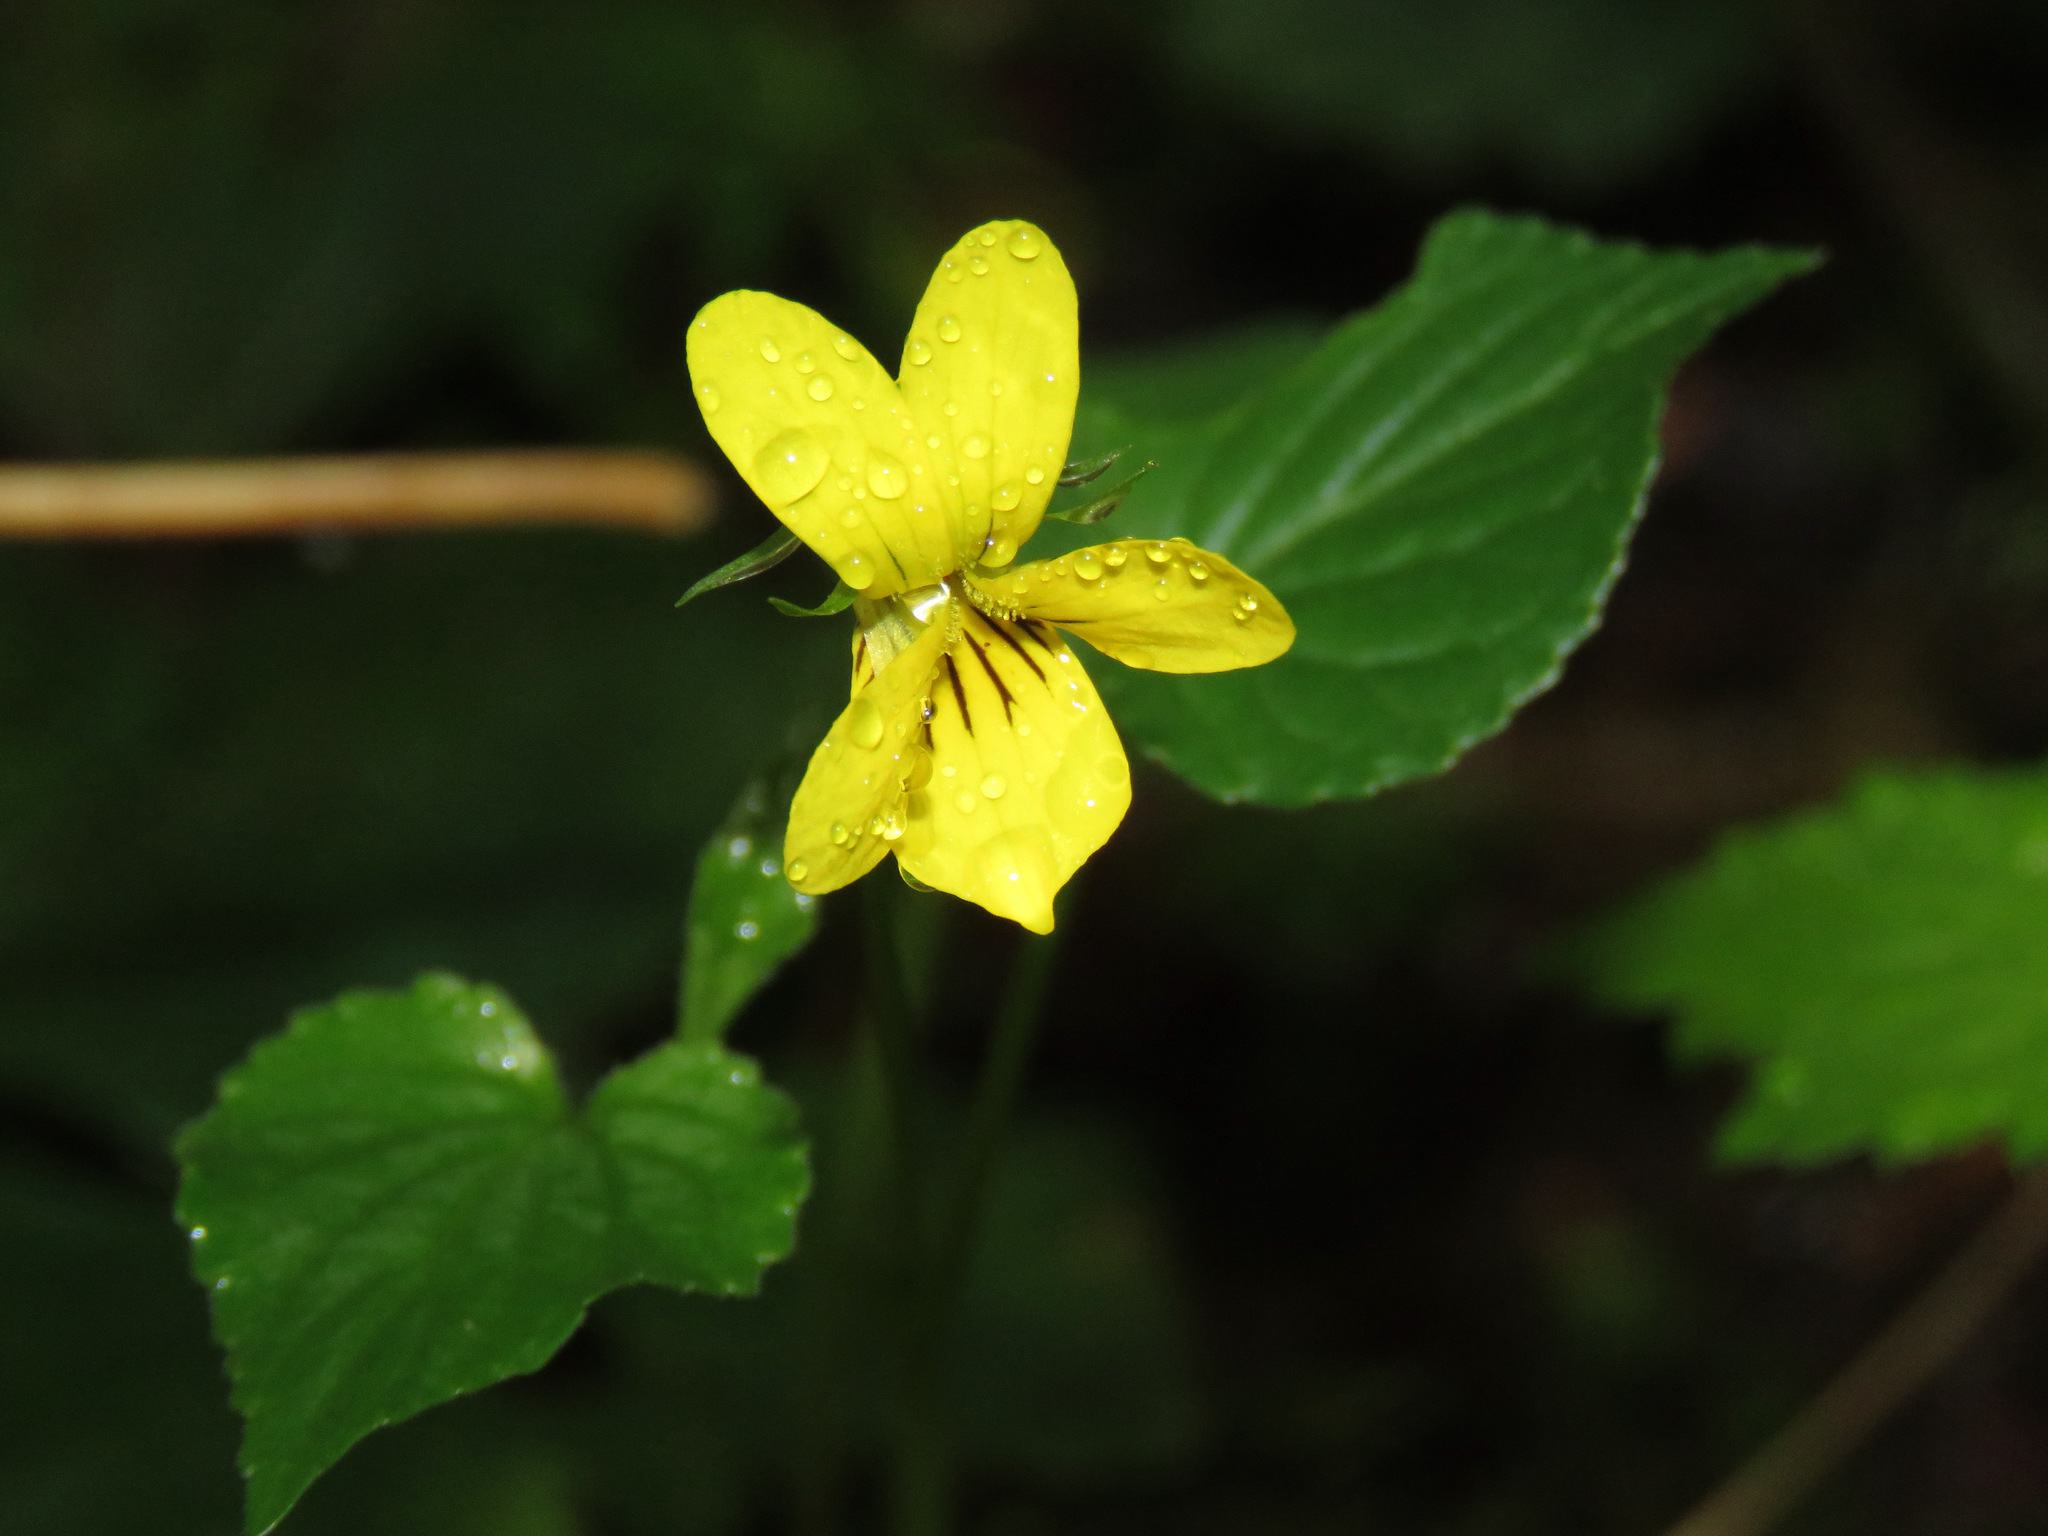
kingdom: Plantae
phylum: Tracheophyta
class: Magnoliopsida
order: Malpighiales
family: Violaceae
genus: Viola
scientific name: Viola glabella
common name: Stream violet
